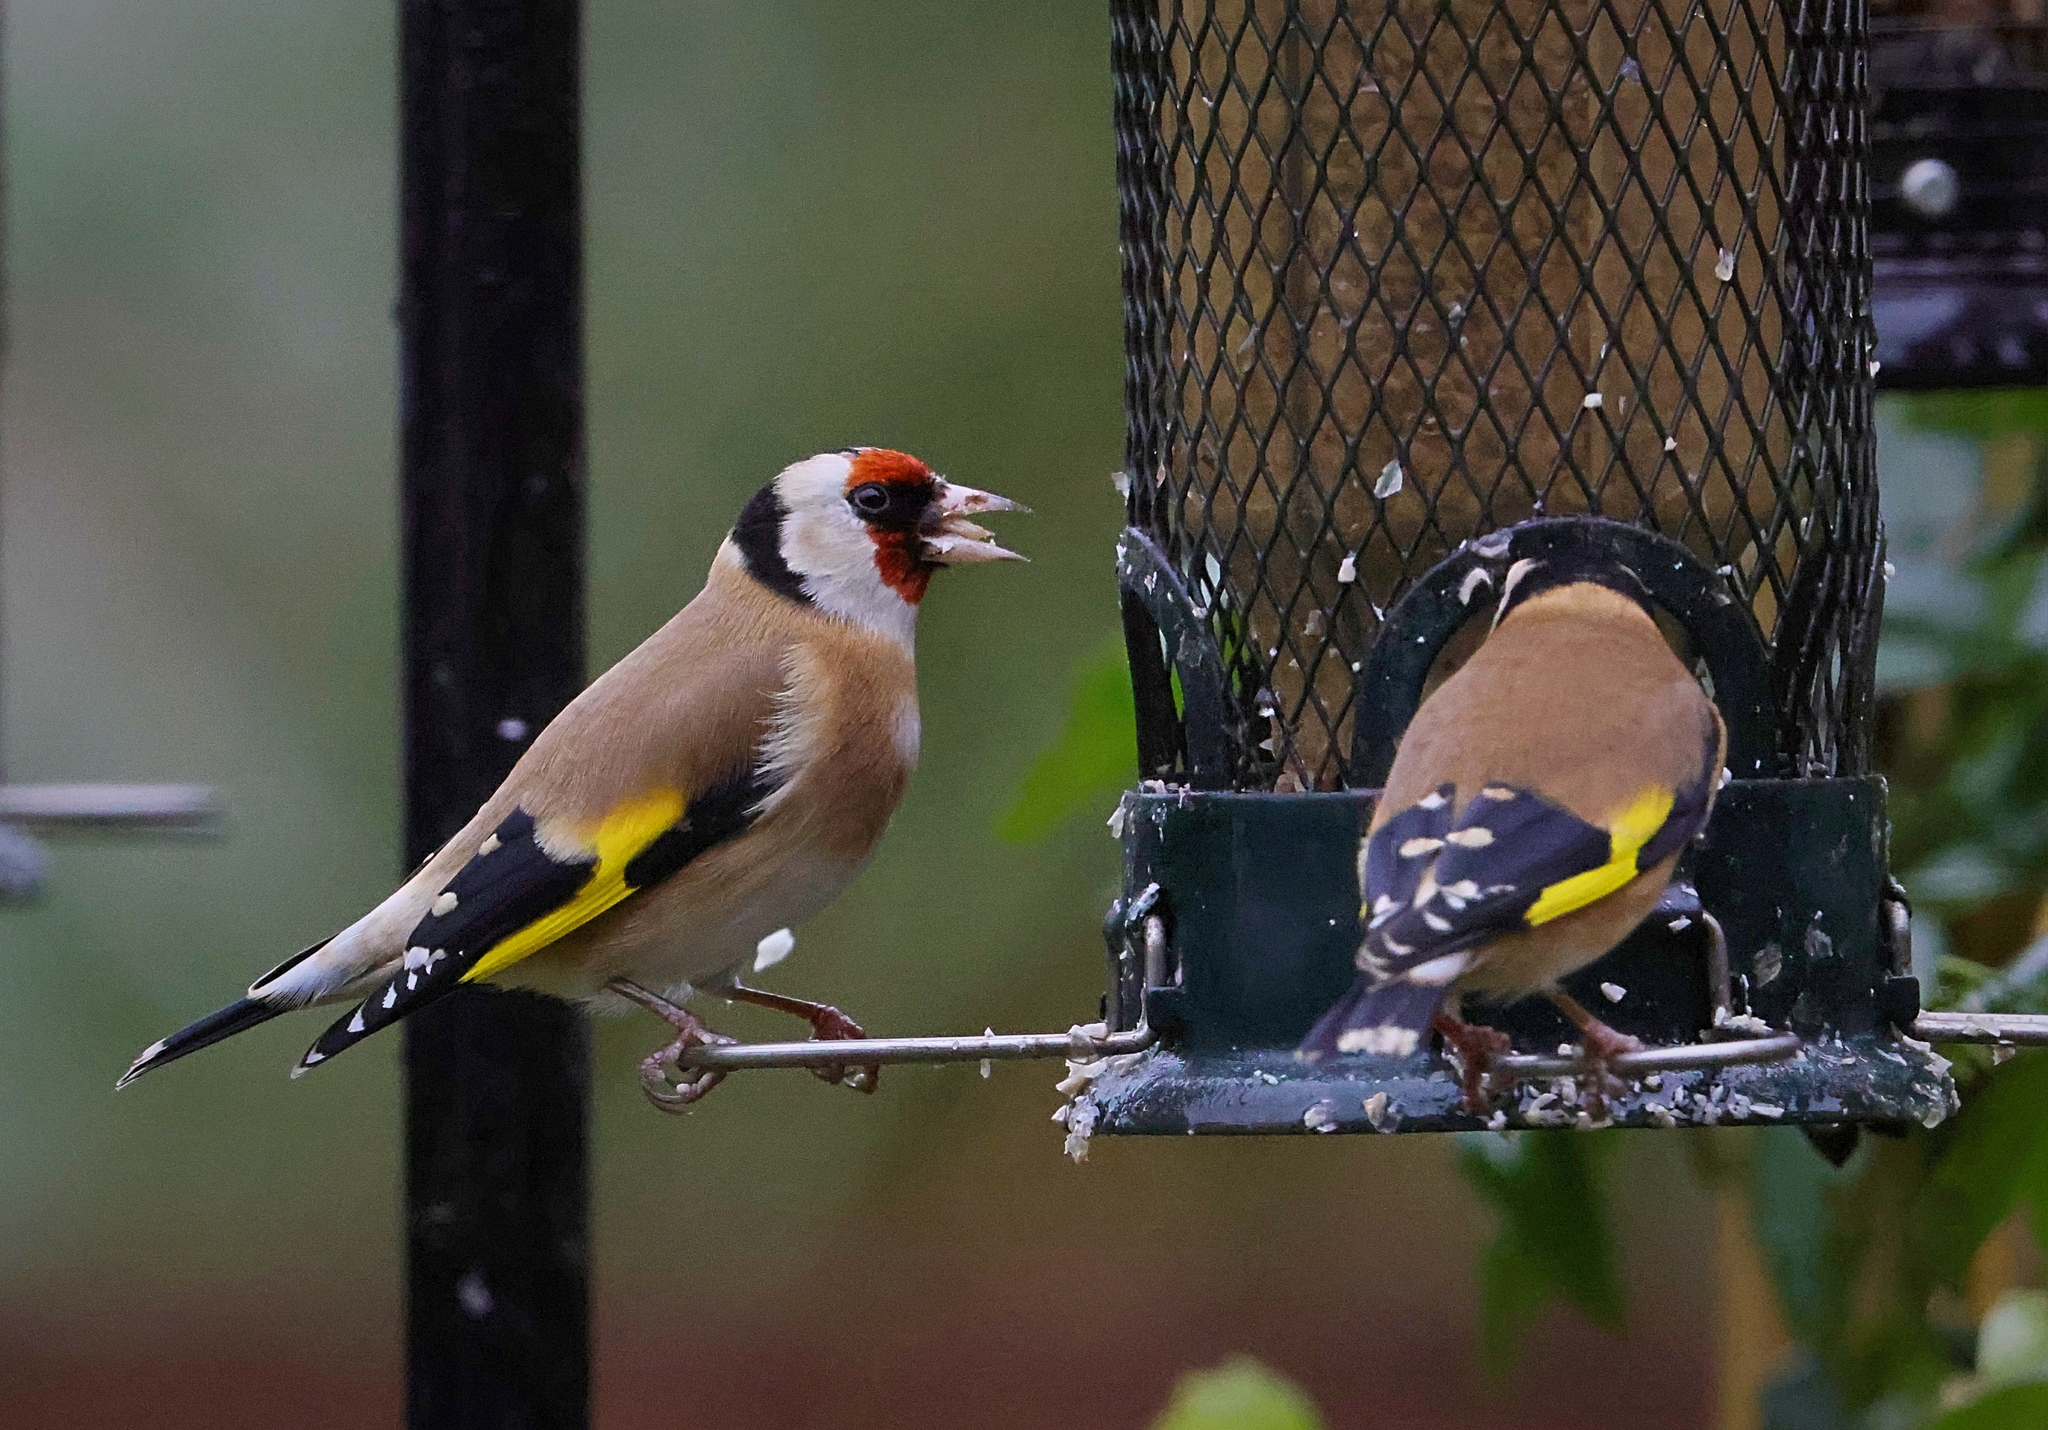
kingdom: Animalia
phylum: Chordata
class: Aves
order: Passeriformes
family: Fringillidae
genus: Carduelis
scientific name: Carduelis carduelis
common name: European goldfinch
